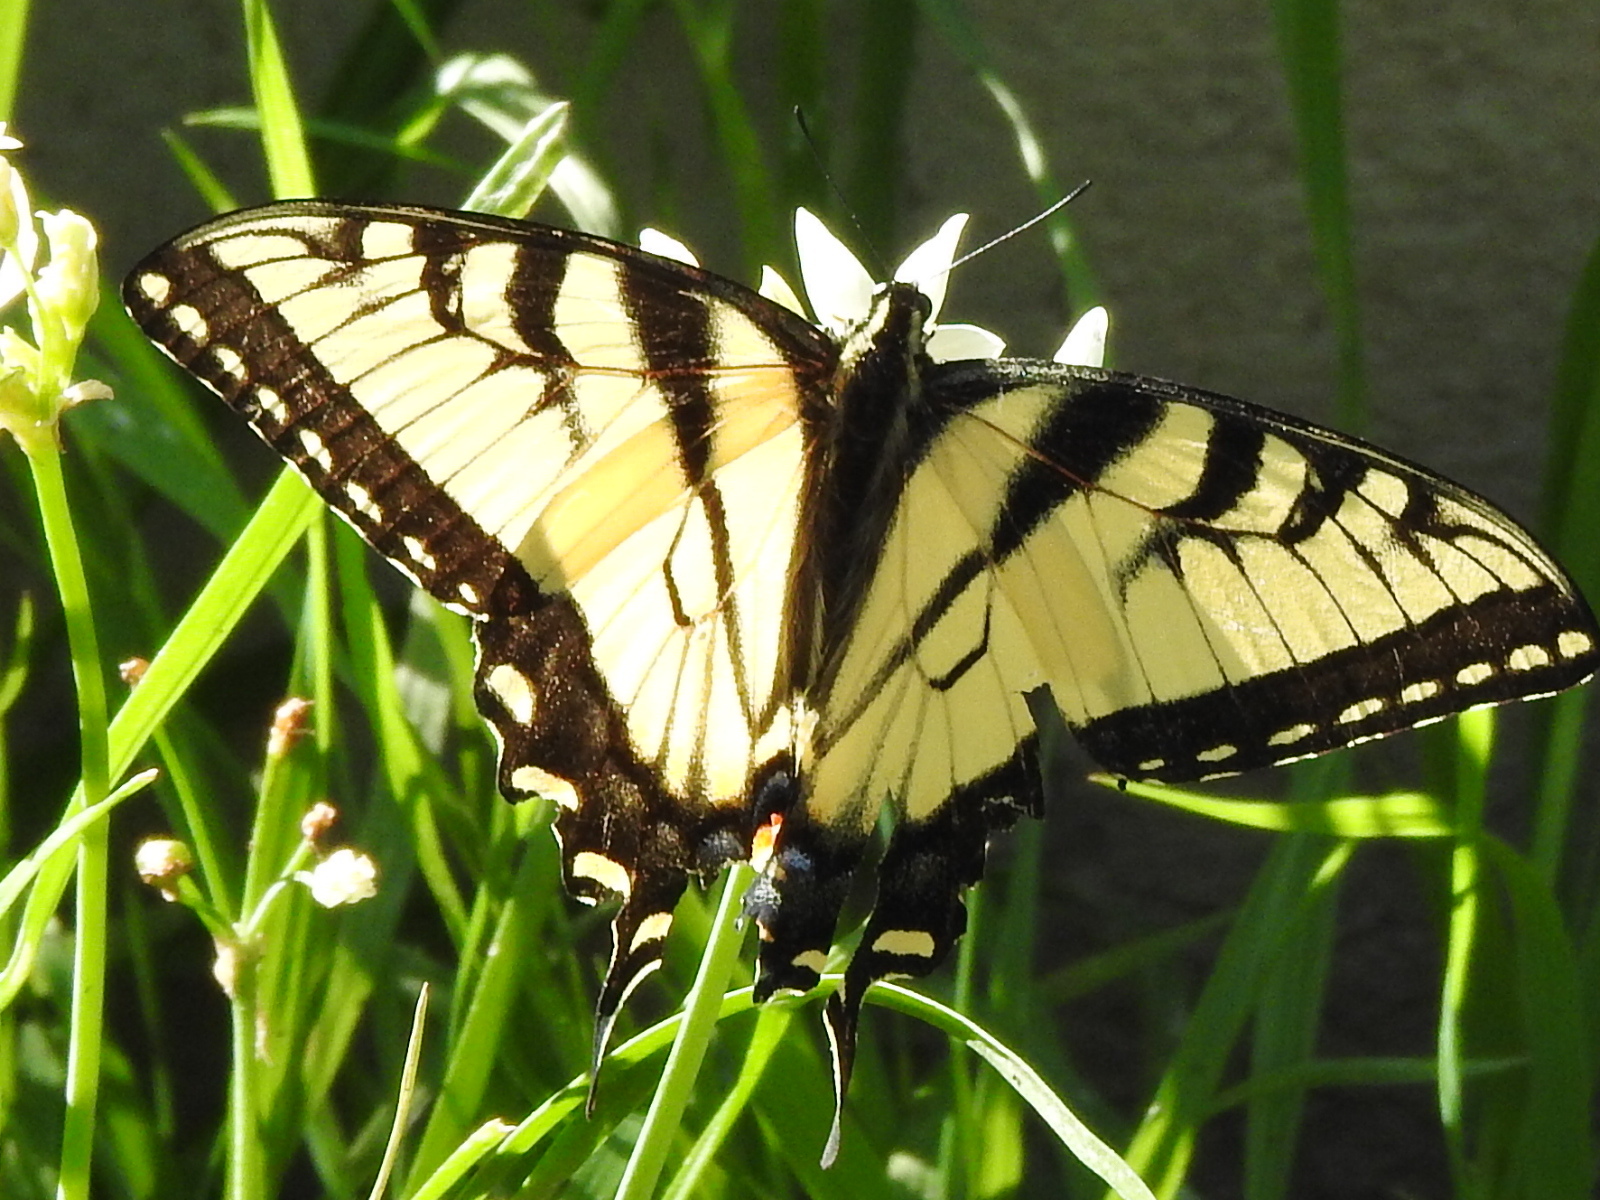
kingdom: Animalia
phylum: Arthropoda
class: Insecta
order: Lepidoptera
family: Papilionidae
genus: Papilio
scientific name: Papilio glaucus
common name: Tiger swallowtail
